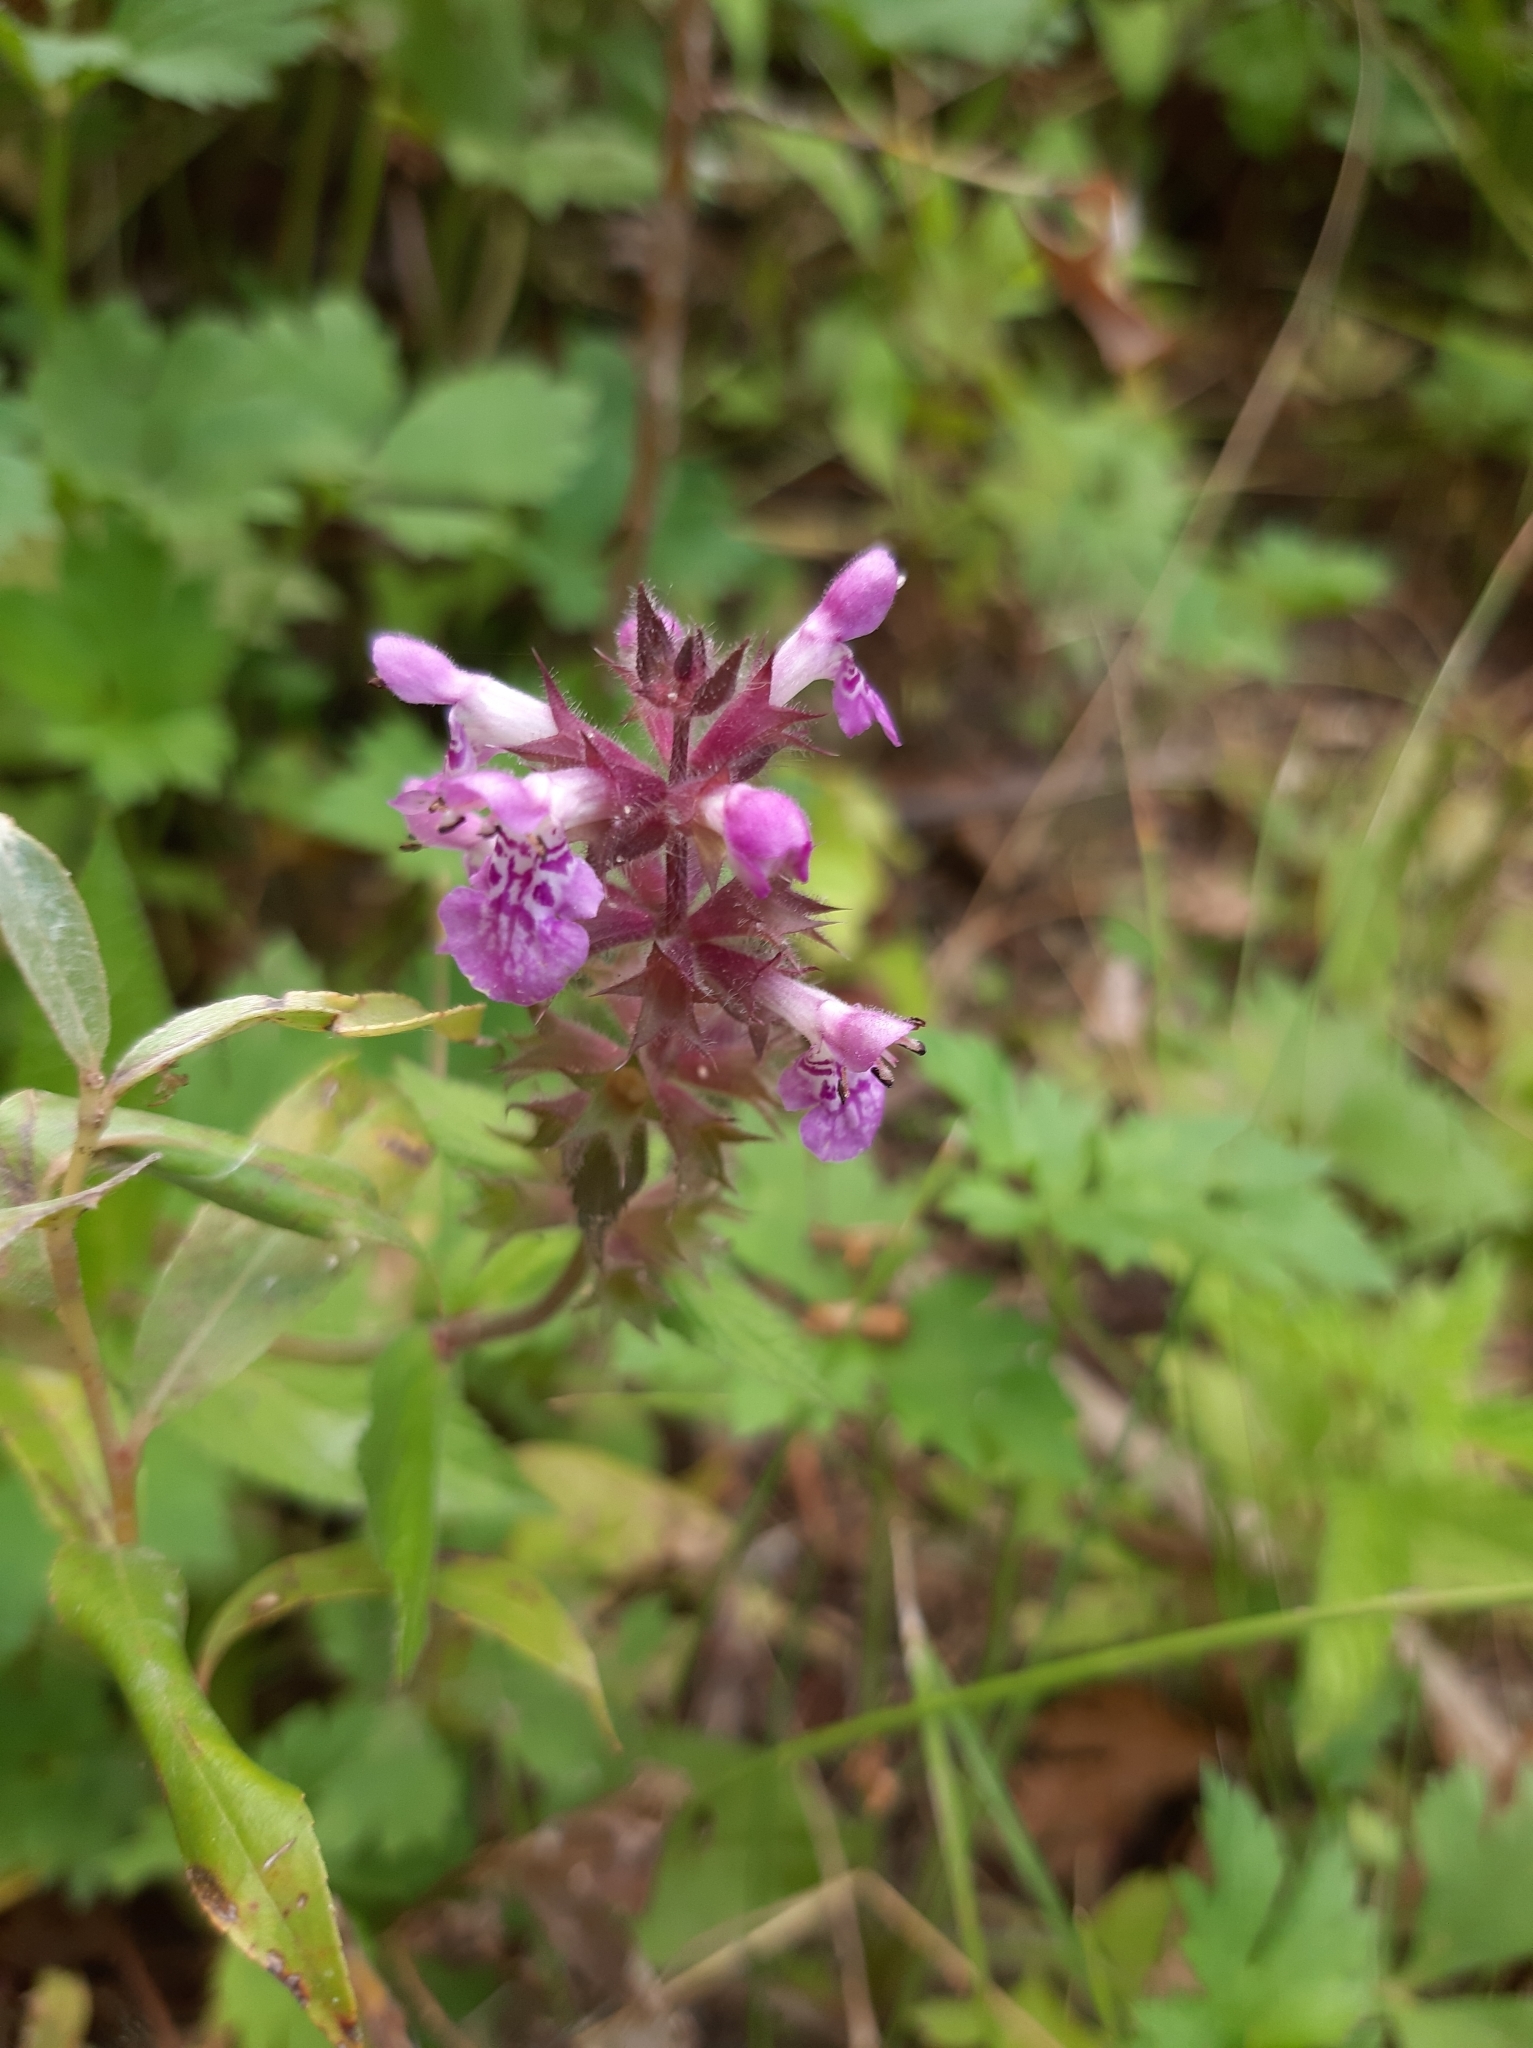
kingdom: Plantae
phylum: Tracheophyta
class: Magnoliopsida
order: Lamiales
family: Lamiaceae
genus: Stachys
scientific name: Stachys palustris
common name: Marsh woundwort
